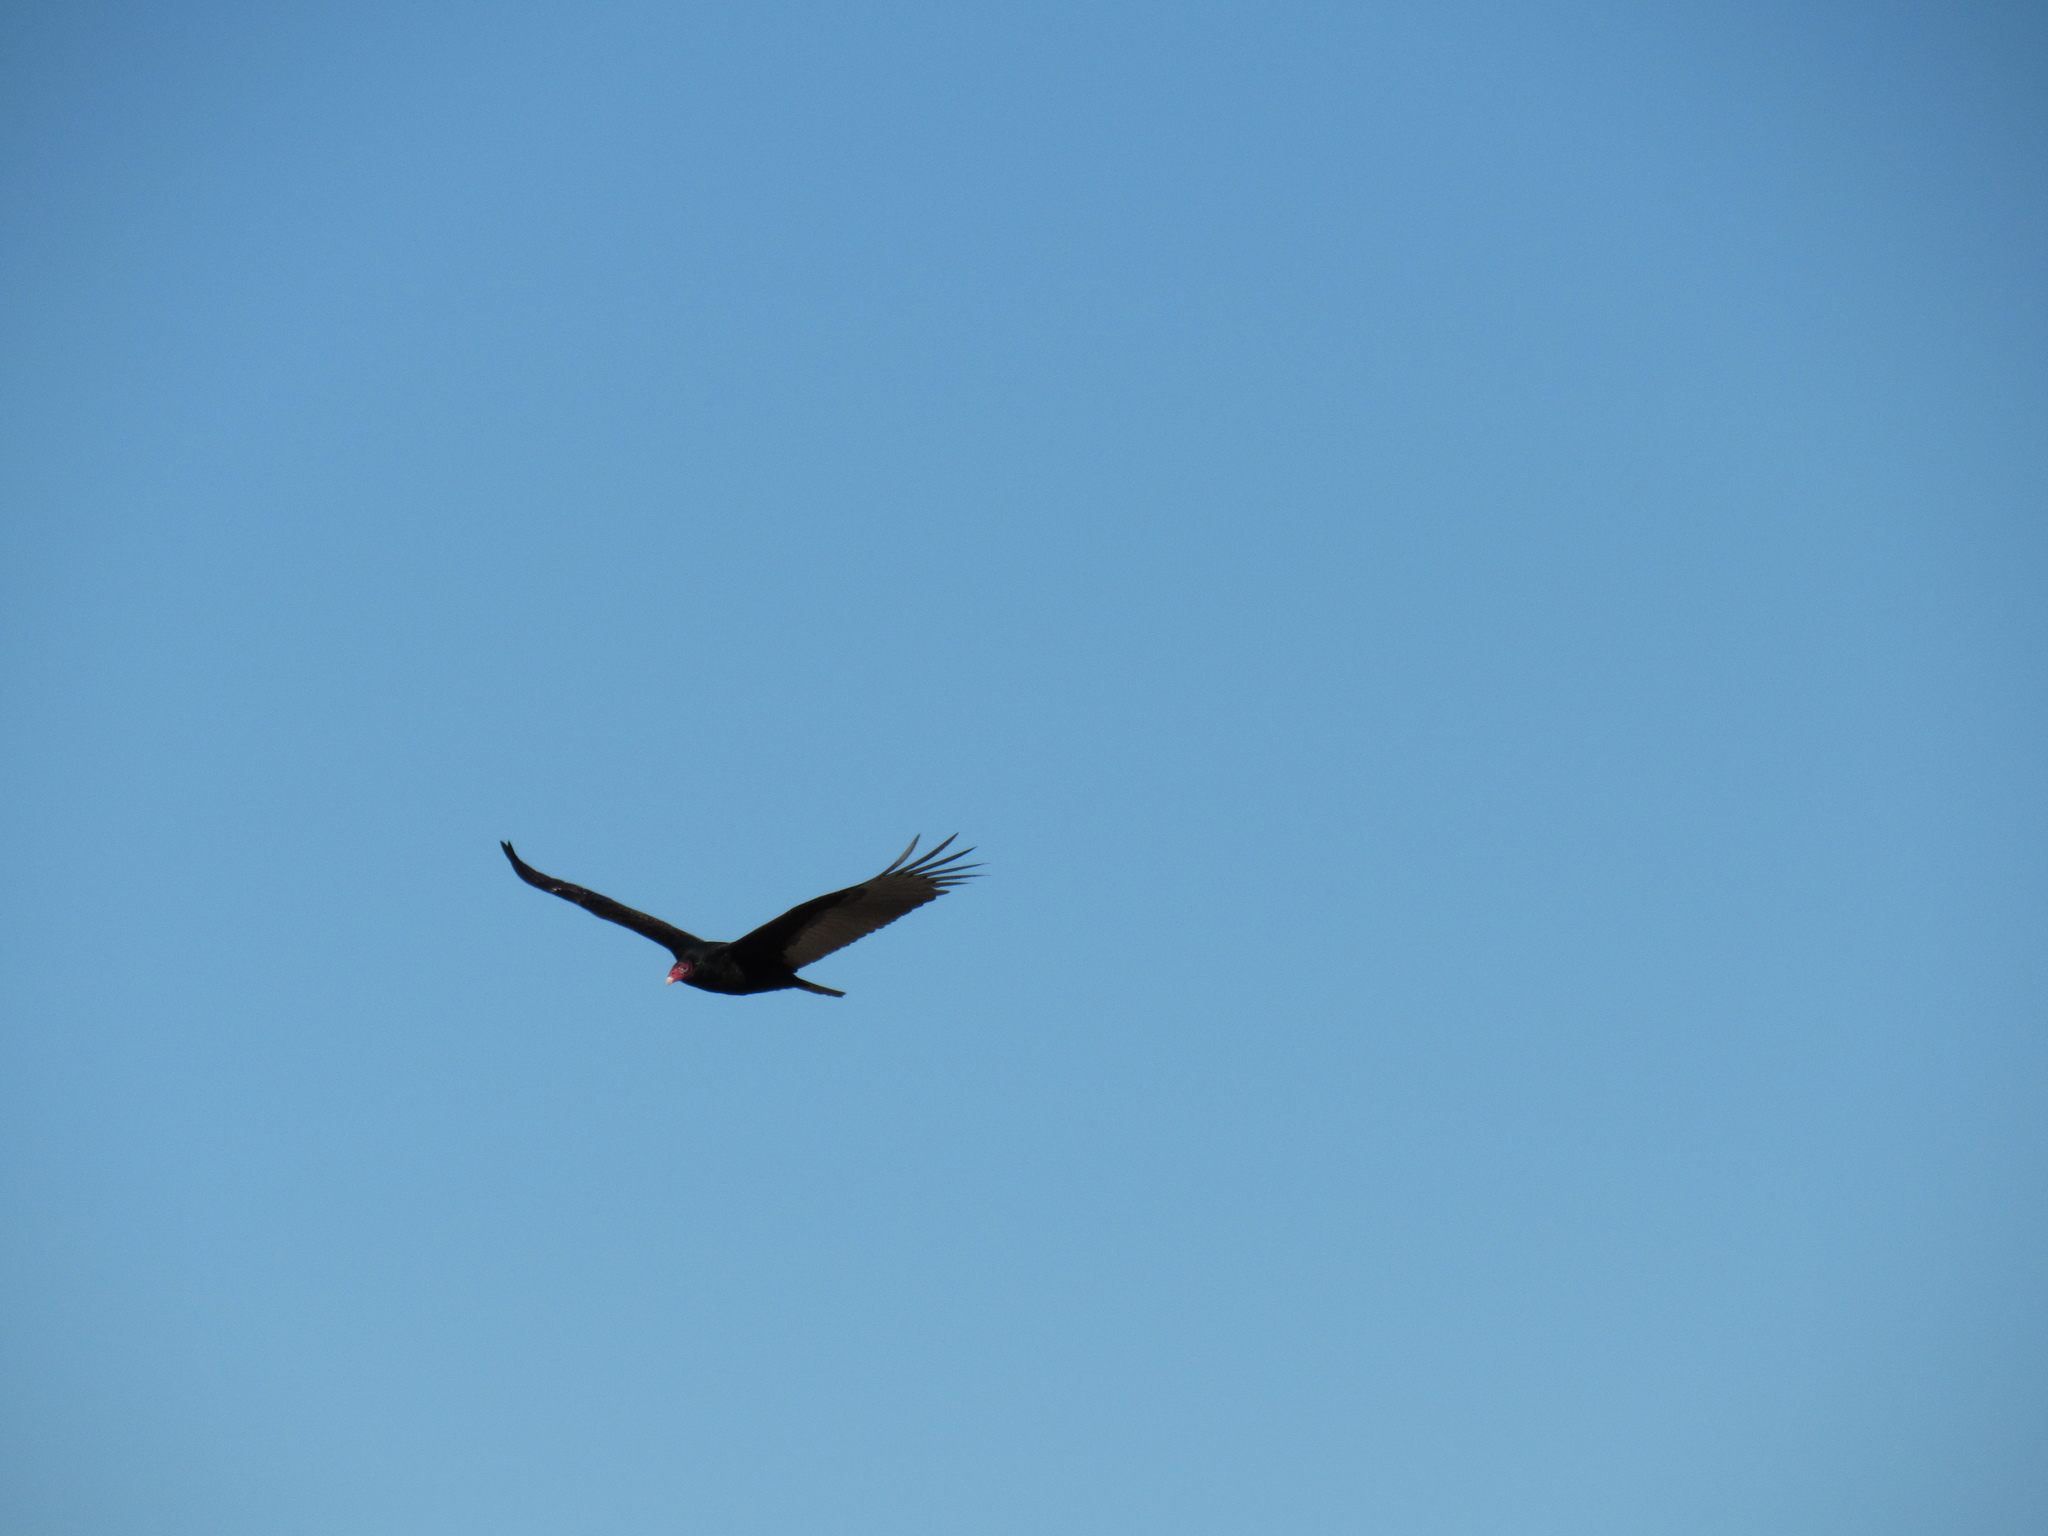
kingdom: Animalia
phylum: Chordata
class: Aves
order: Accipitriformes
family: Cathartidae
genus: Cathartes
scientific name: Cathartes aura
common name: Turkey vulture
